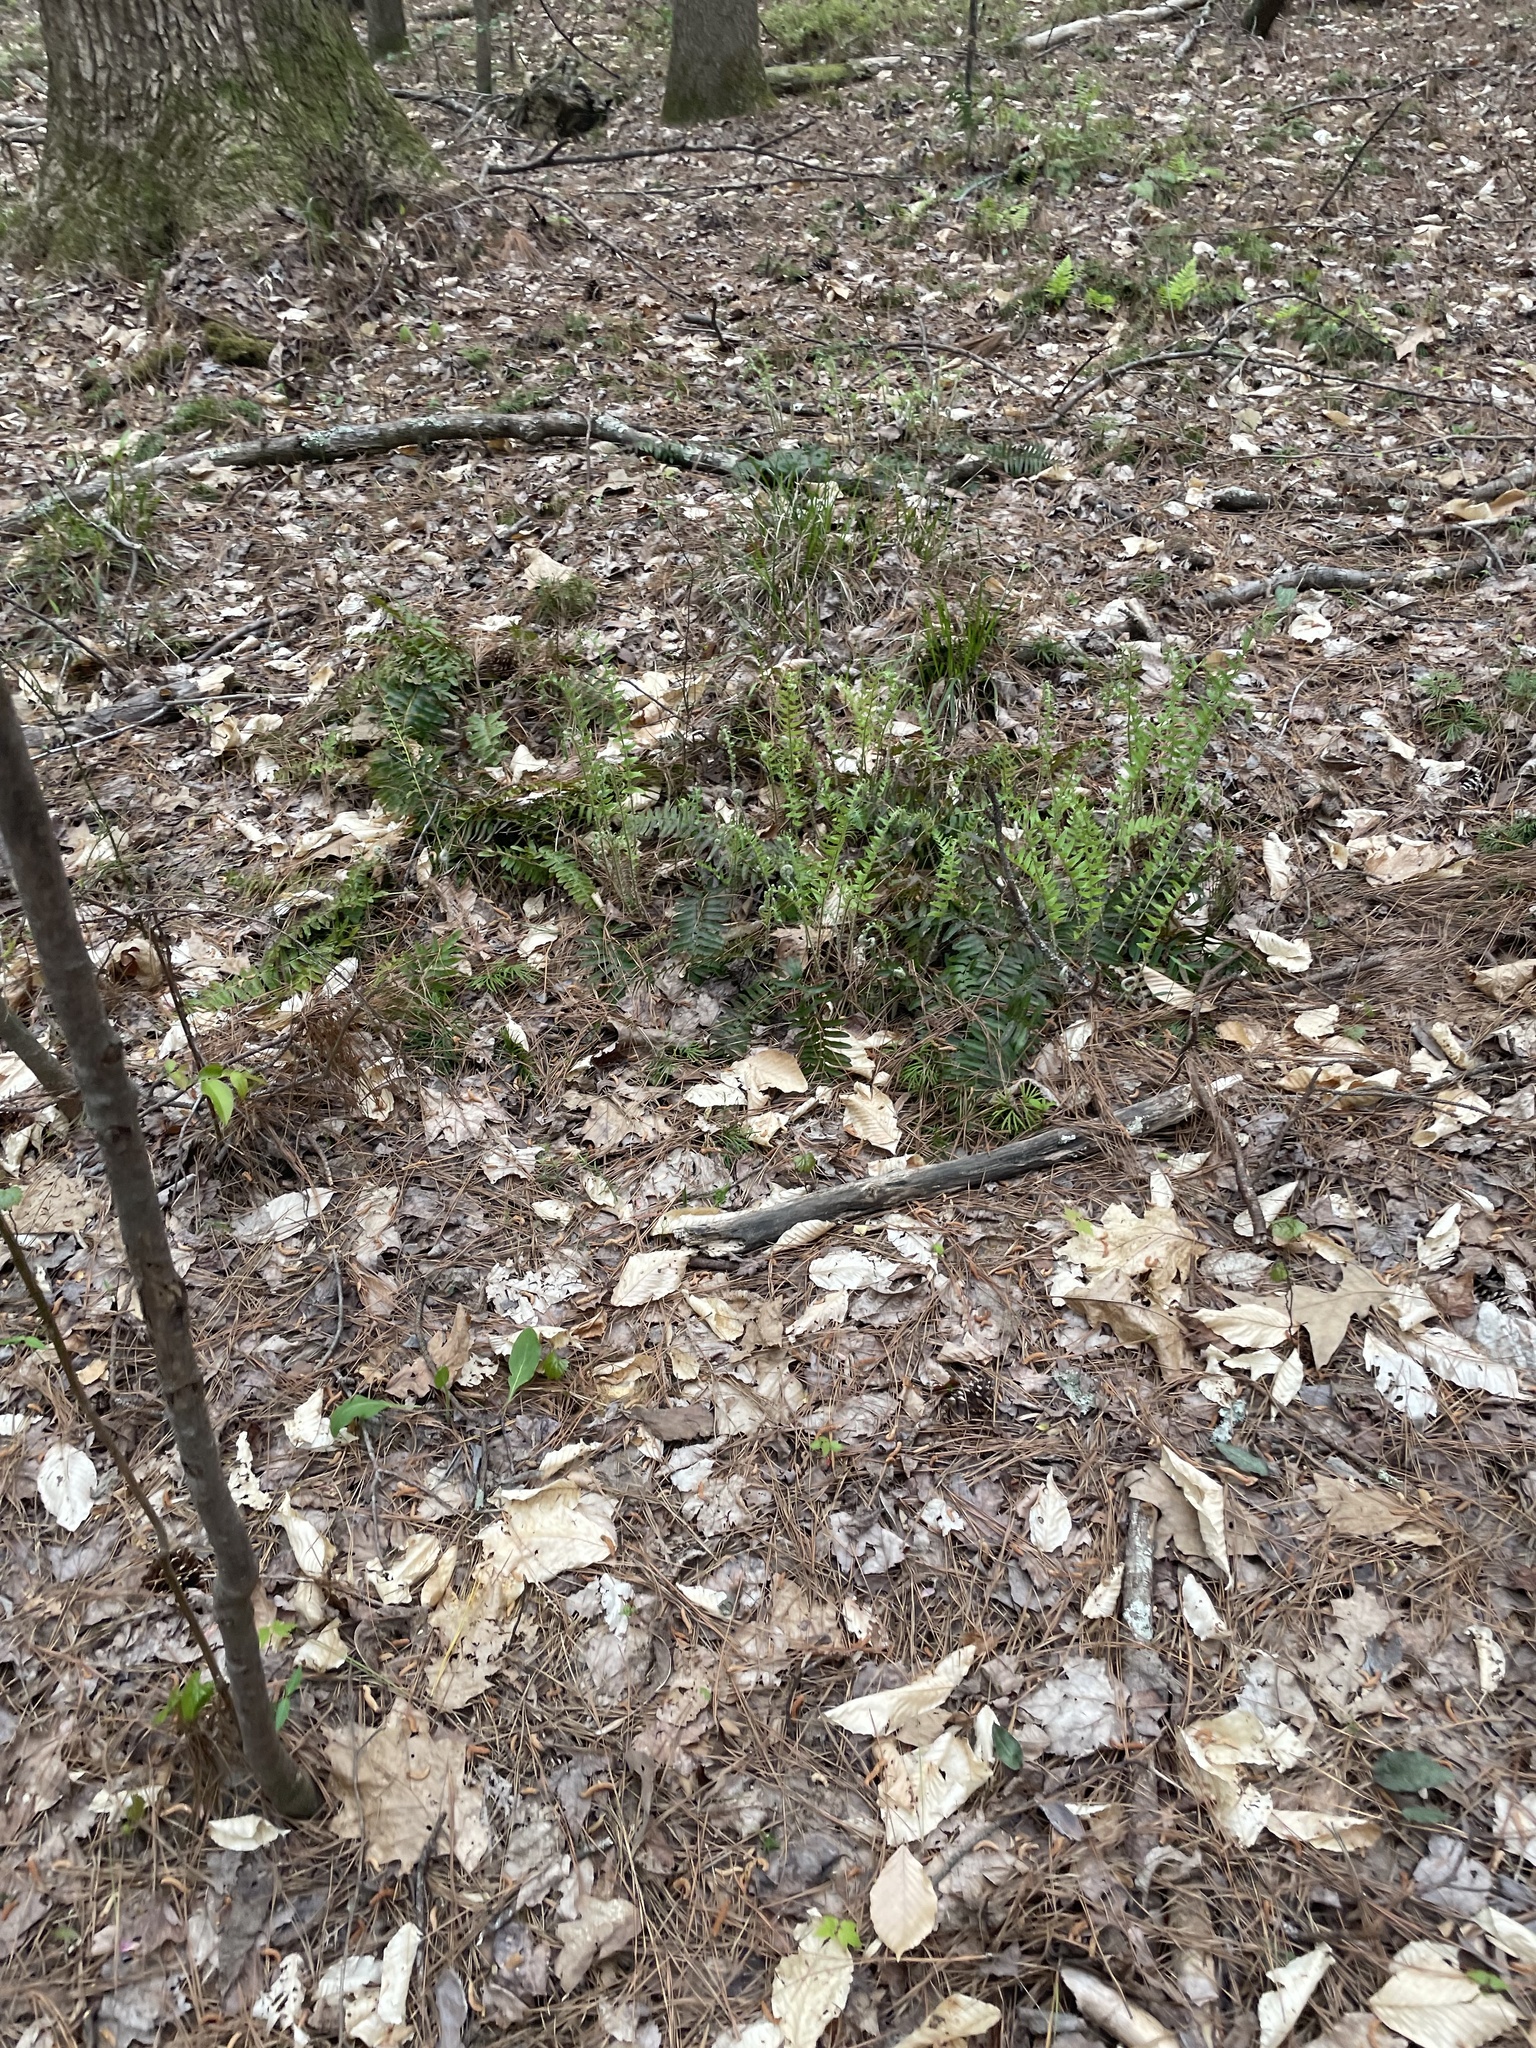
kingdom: Plantae
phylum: Tracheophyta
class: Polypodiopsida
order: Polypodiales
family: Dryopteridaceae
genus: Polystichum
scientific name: Polystichum acrostichoides
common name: Christmas fern
